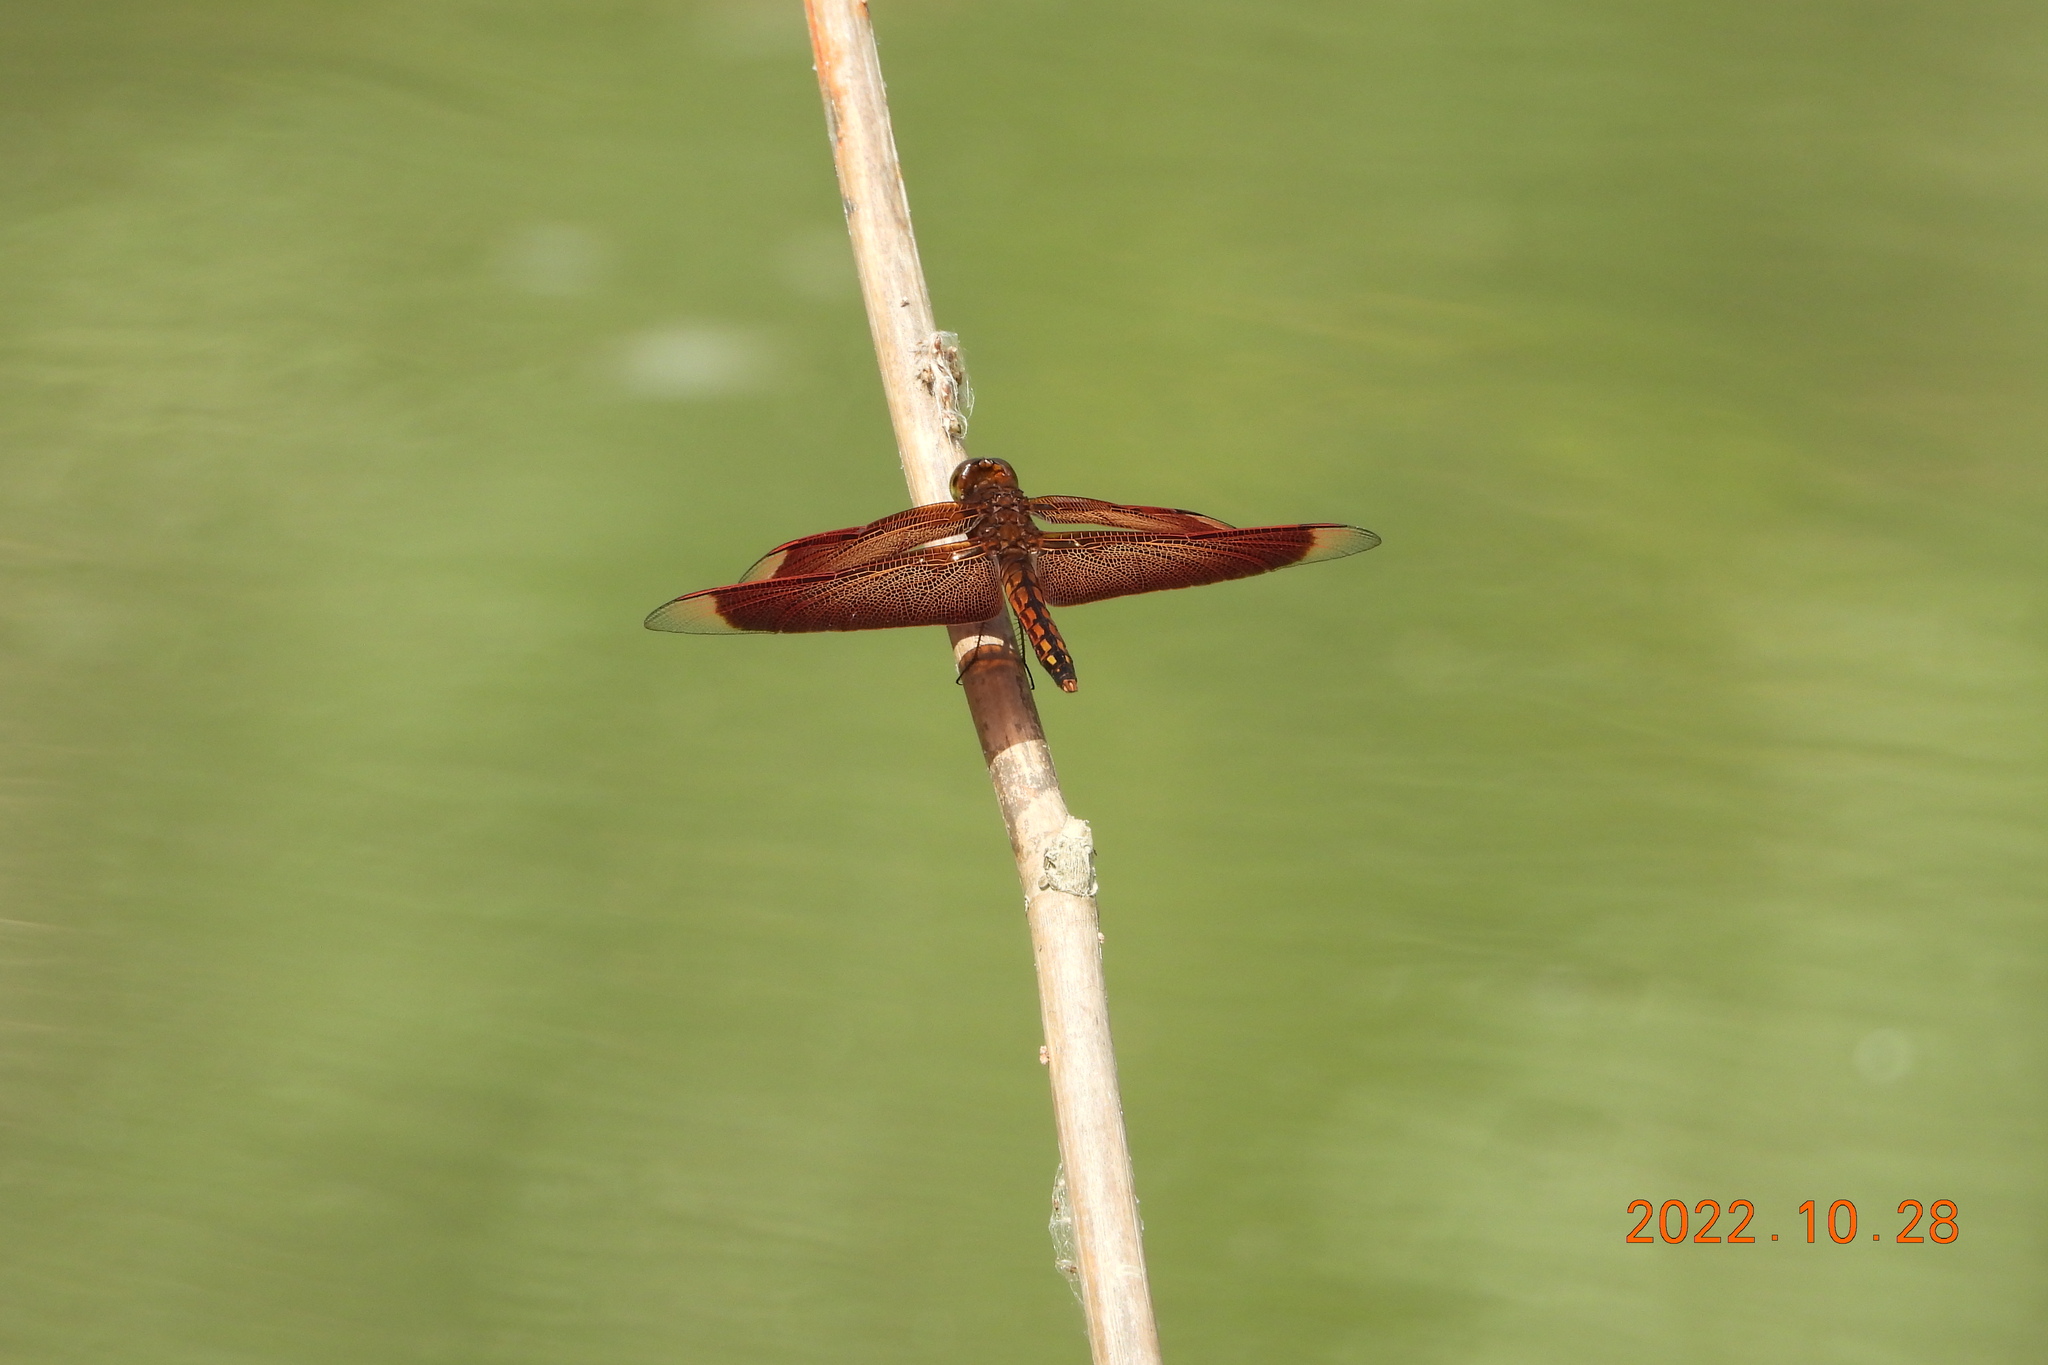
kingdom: Animalia
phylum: Arthropoda
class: Insecta
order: Odonata
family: Libellulidae
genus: Neurothemis
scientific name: Neurothemis taiwanensis
